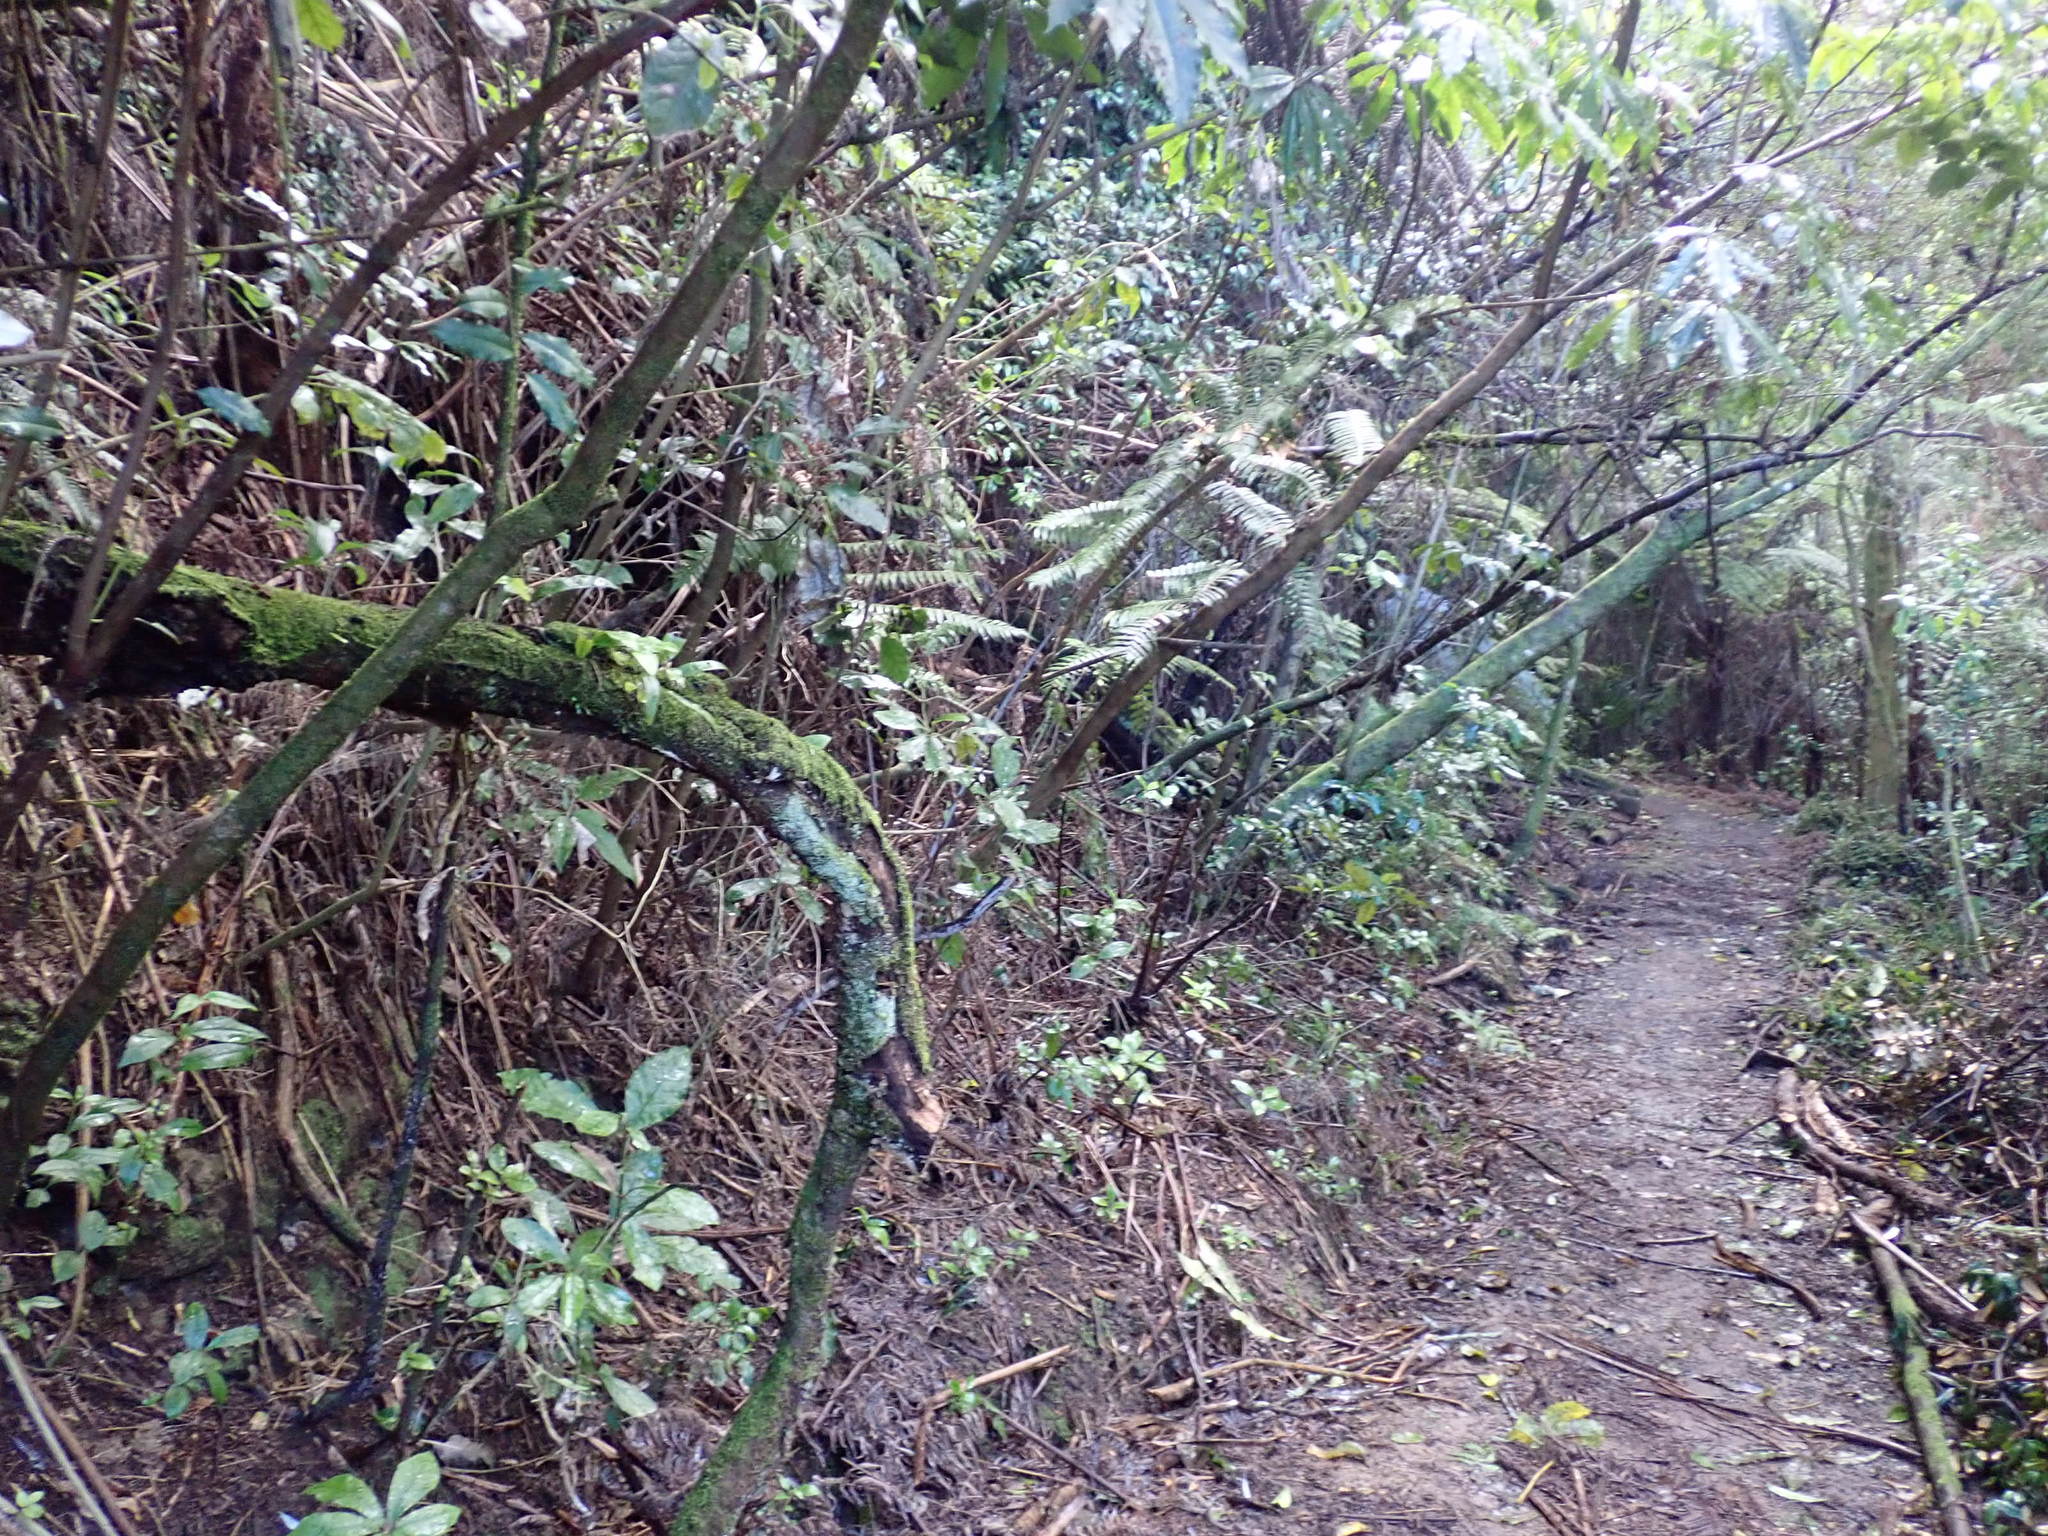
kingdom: Plantae
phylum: Tracheophyta
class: Magnoliopsida
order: Apiales
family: Araliaceae
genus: Schefflera
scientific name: Schefflera digitata
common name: Pate
